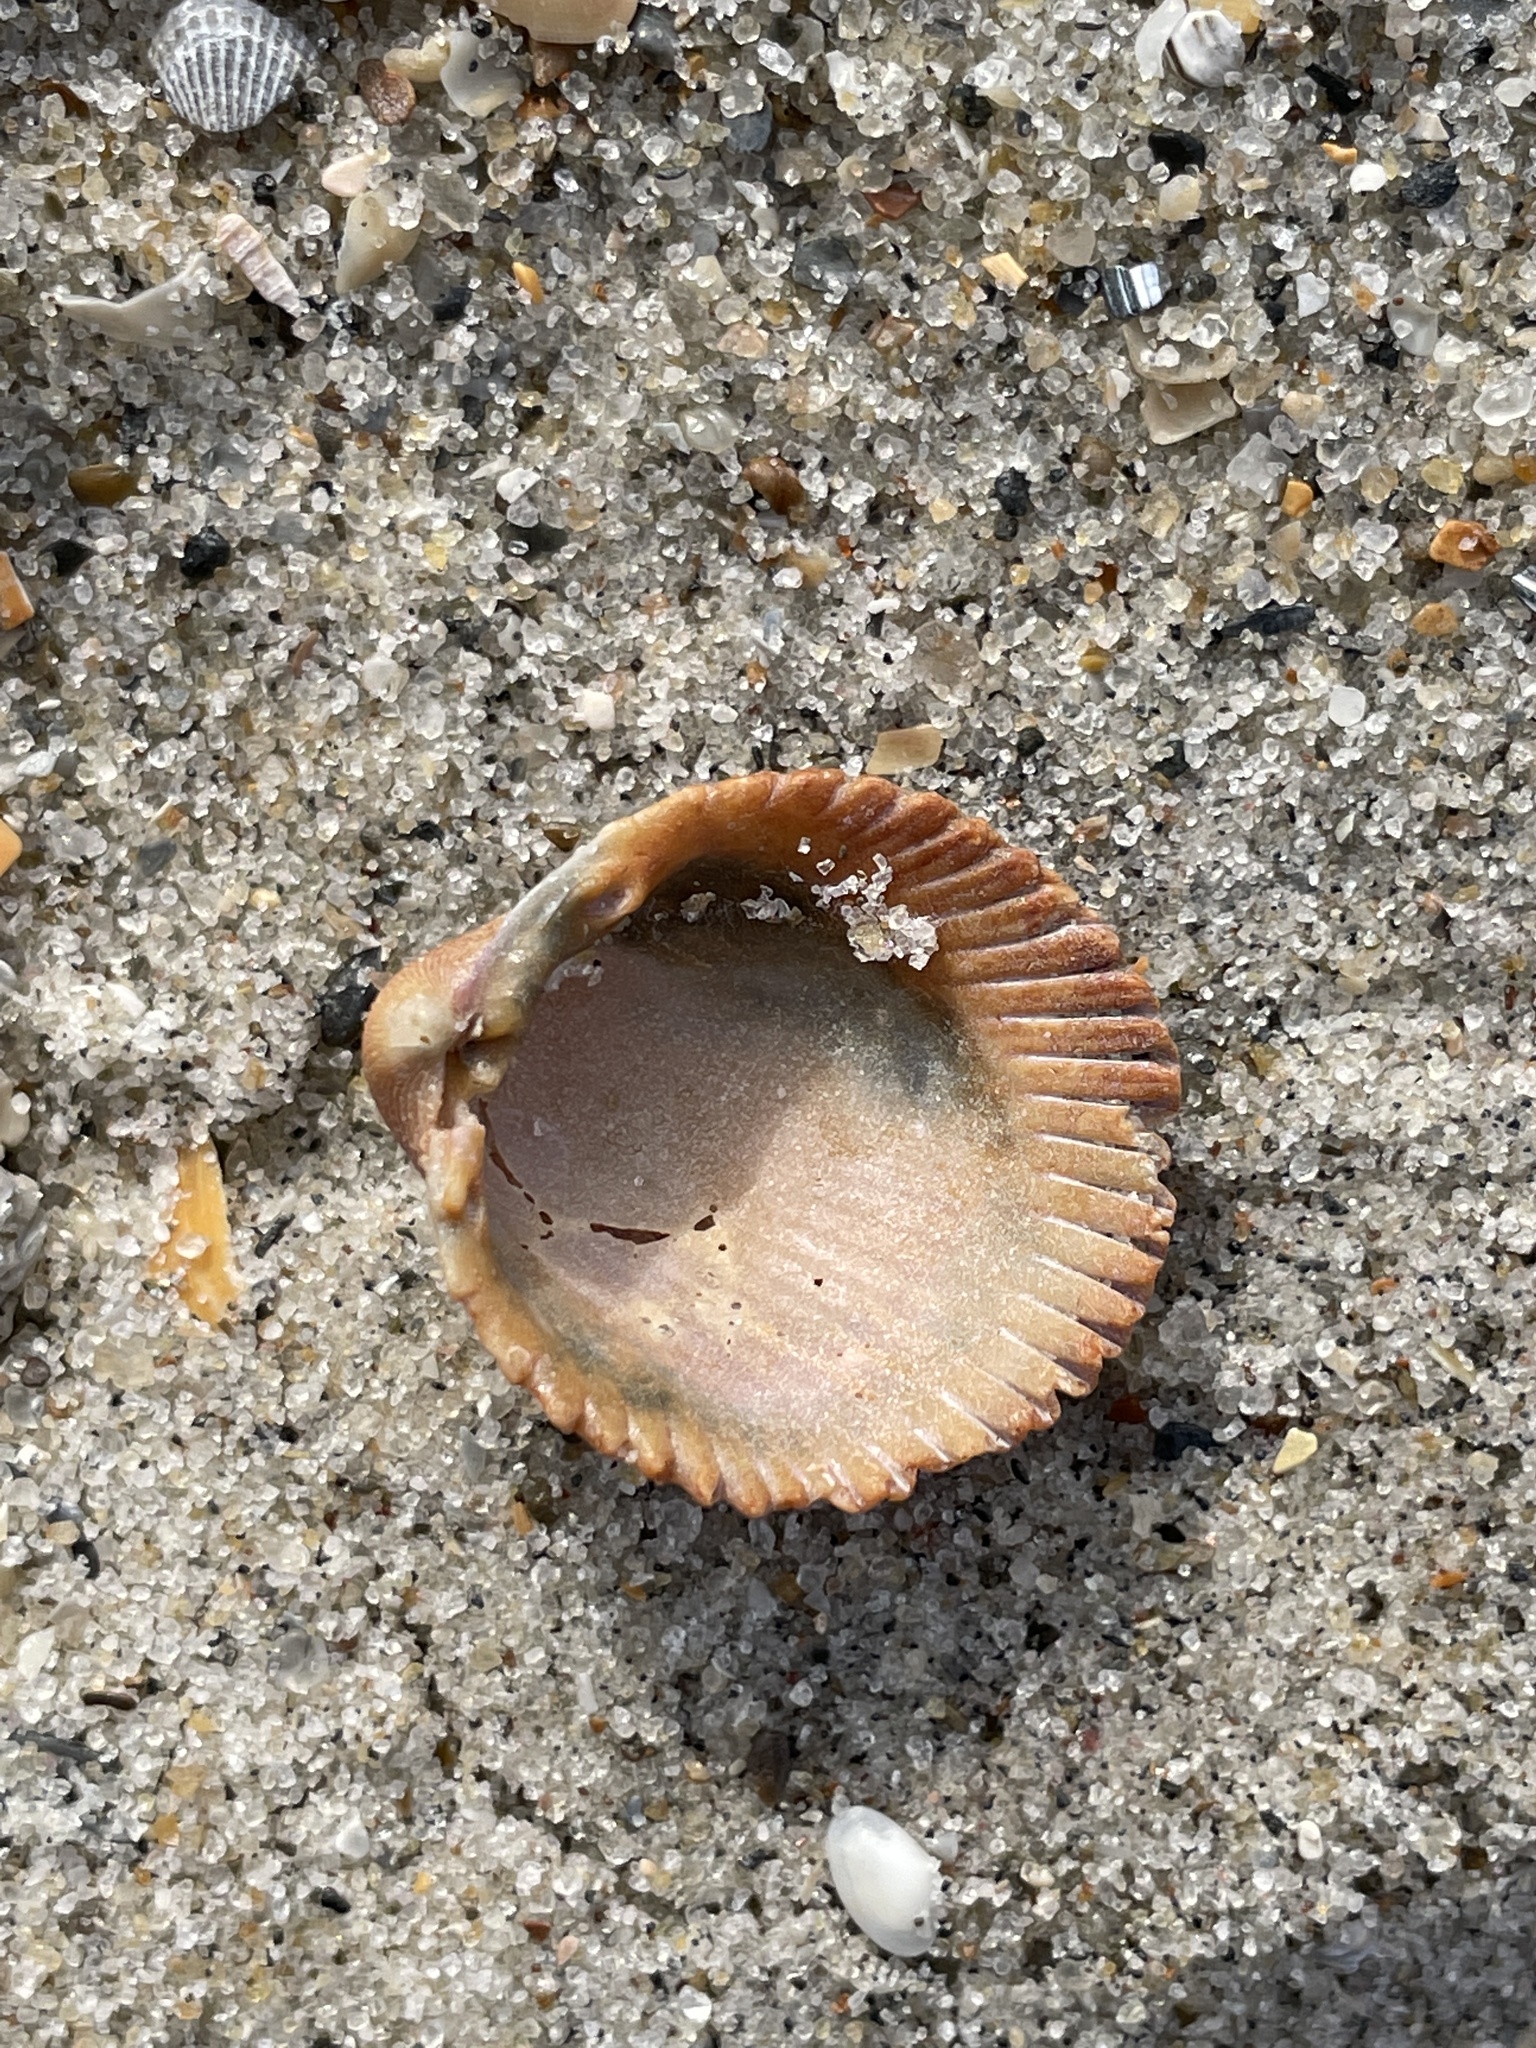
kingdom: Animalia
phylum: Mollusca
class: Bivalvia
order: Cardiida
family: Cardiidae
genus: Trachycardium
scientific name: Trachycardium egmontianum
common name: Florida pricklycockle
